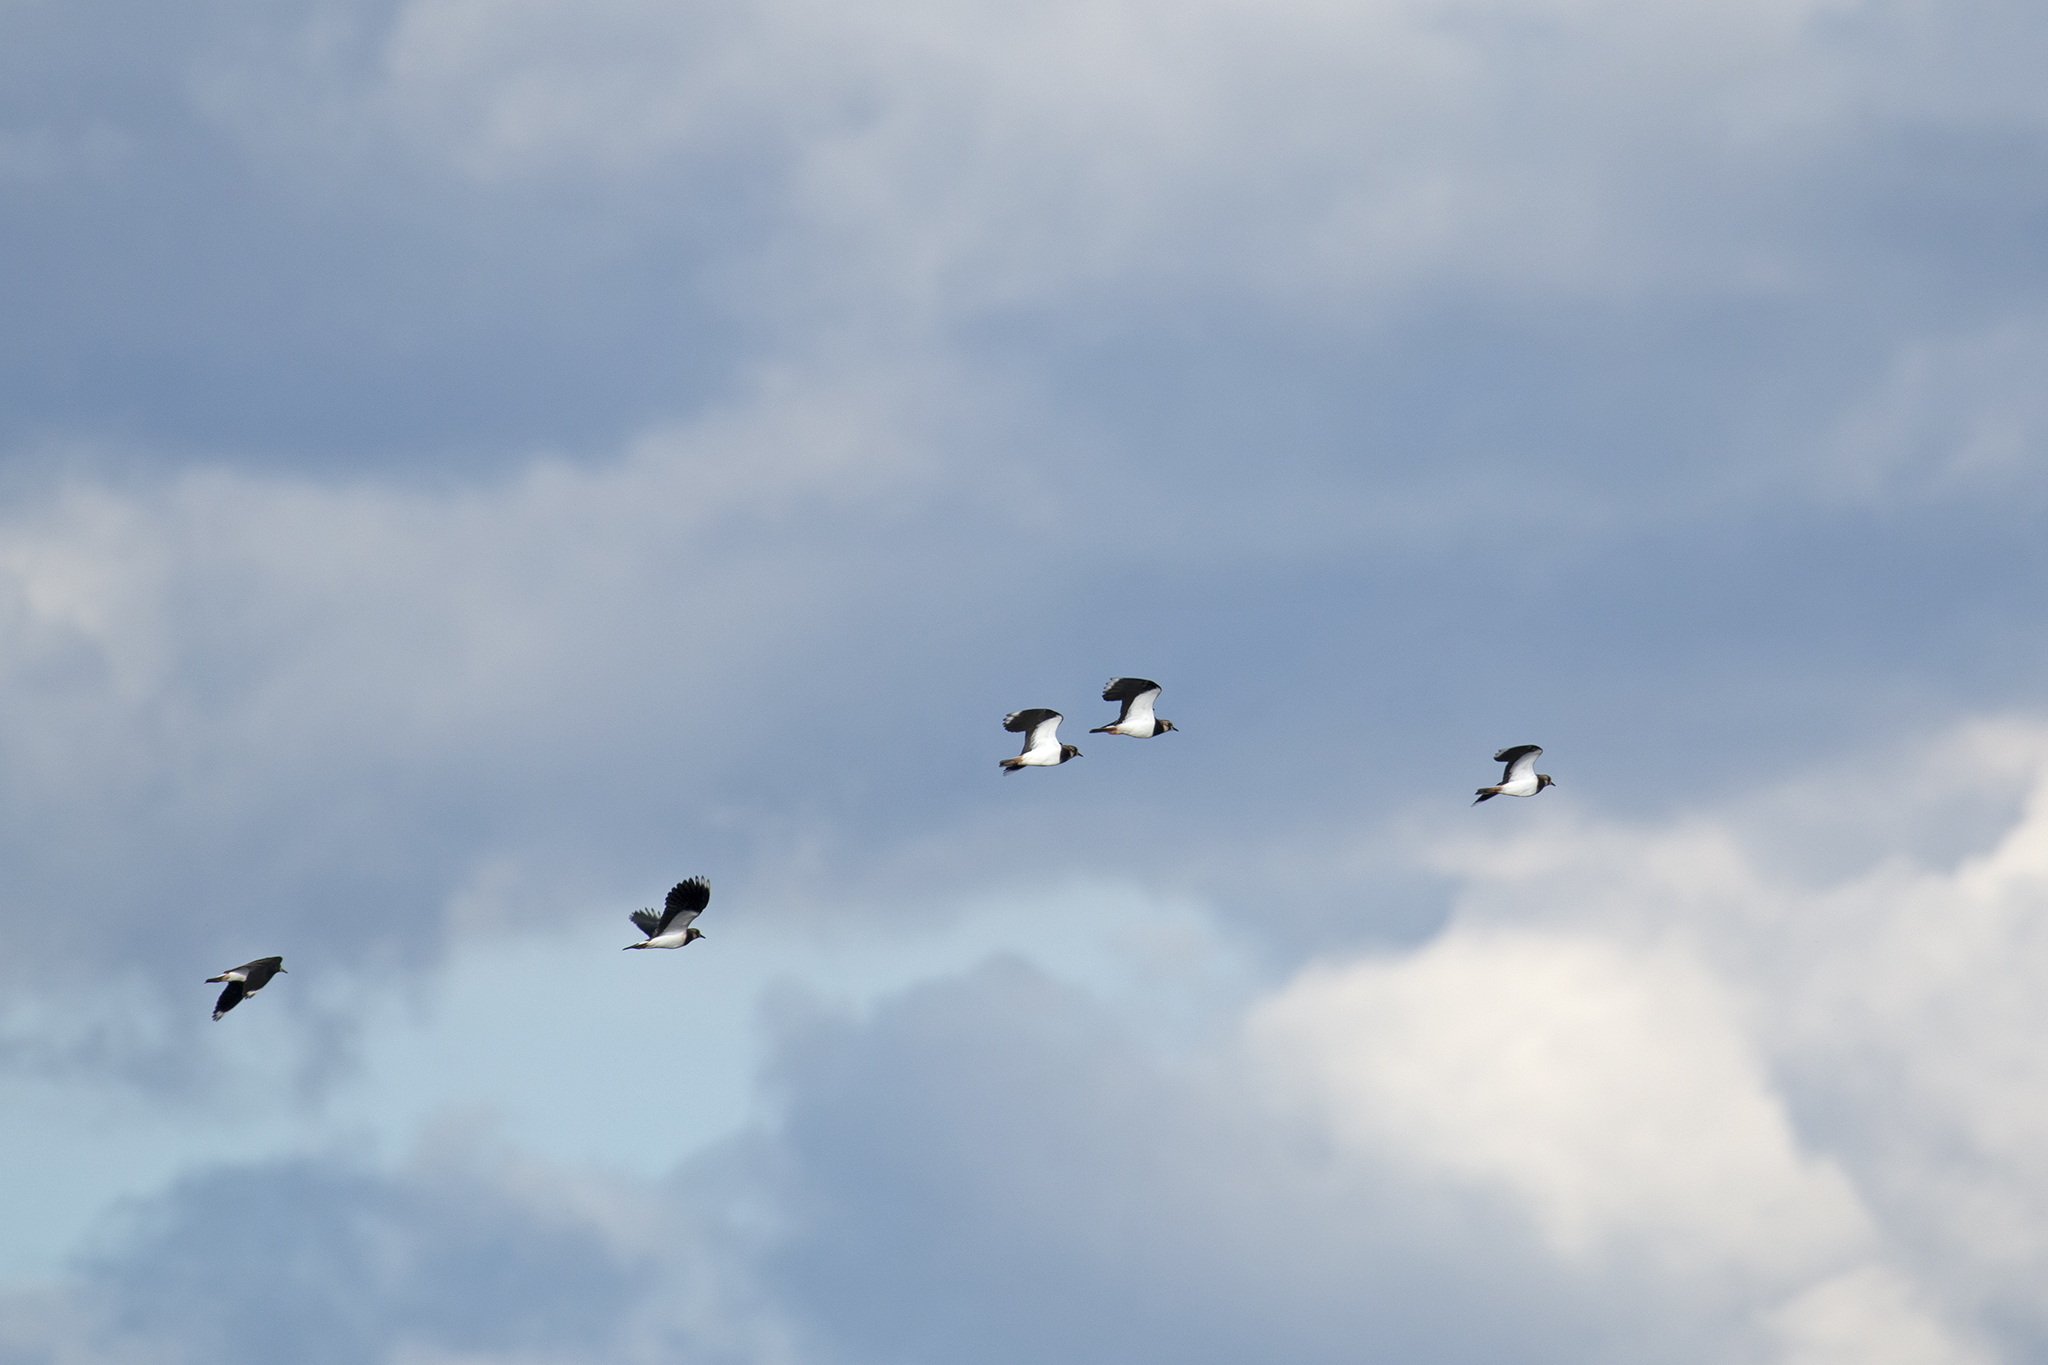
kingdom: Animalia
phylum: Chordata
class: Aves
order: Charadriiformes
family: Charadriidae
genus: Vanellus
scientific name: Vanellus vanellus
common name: Northern lapwing
